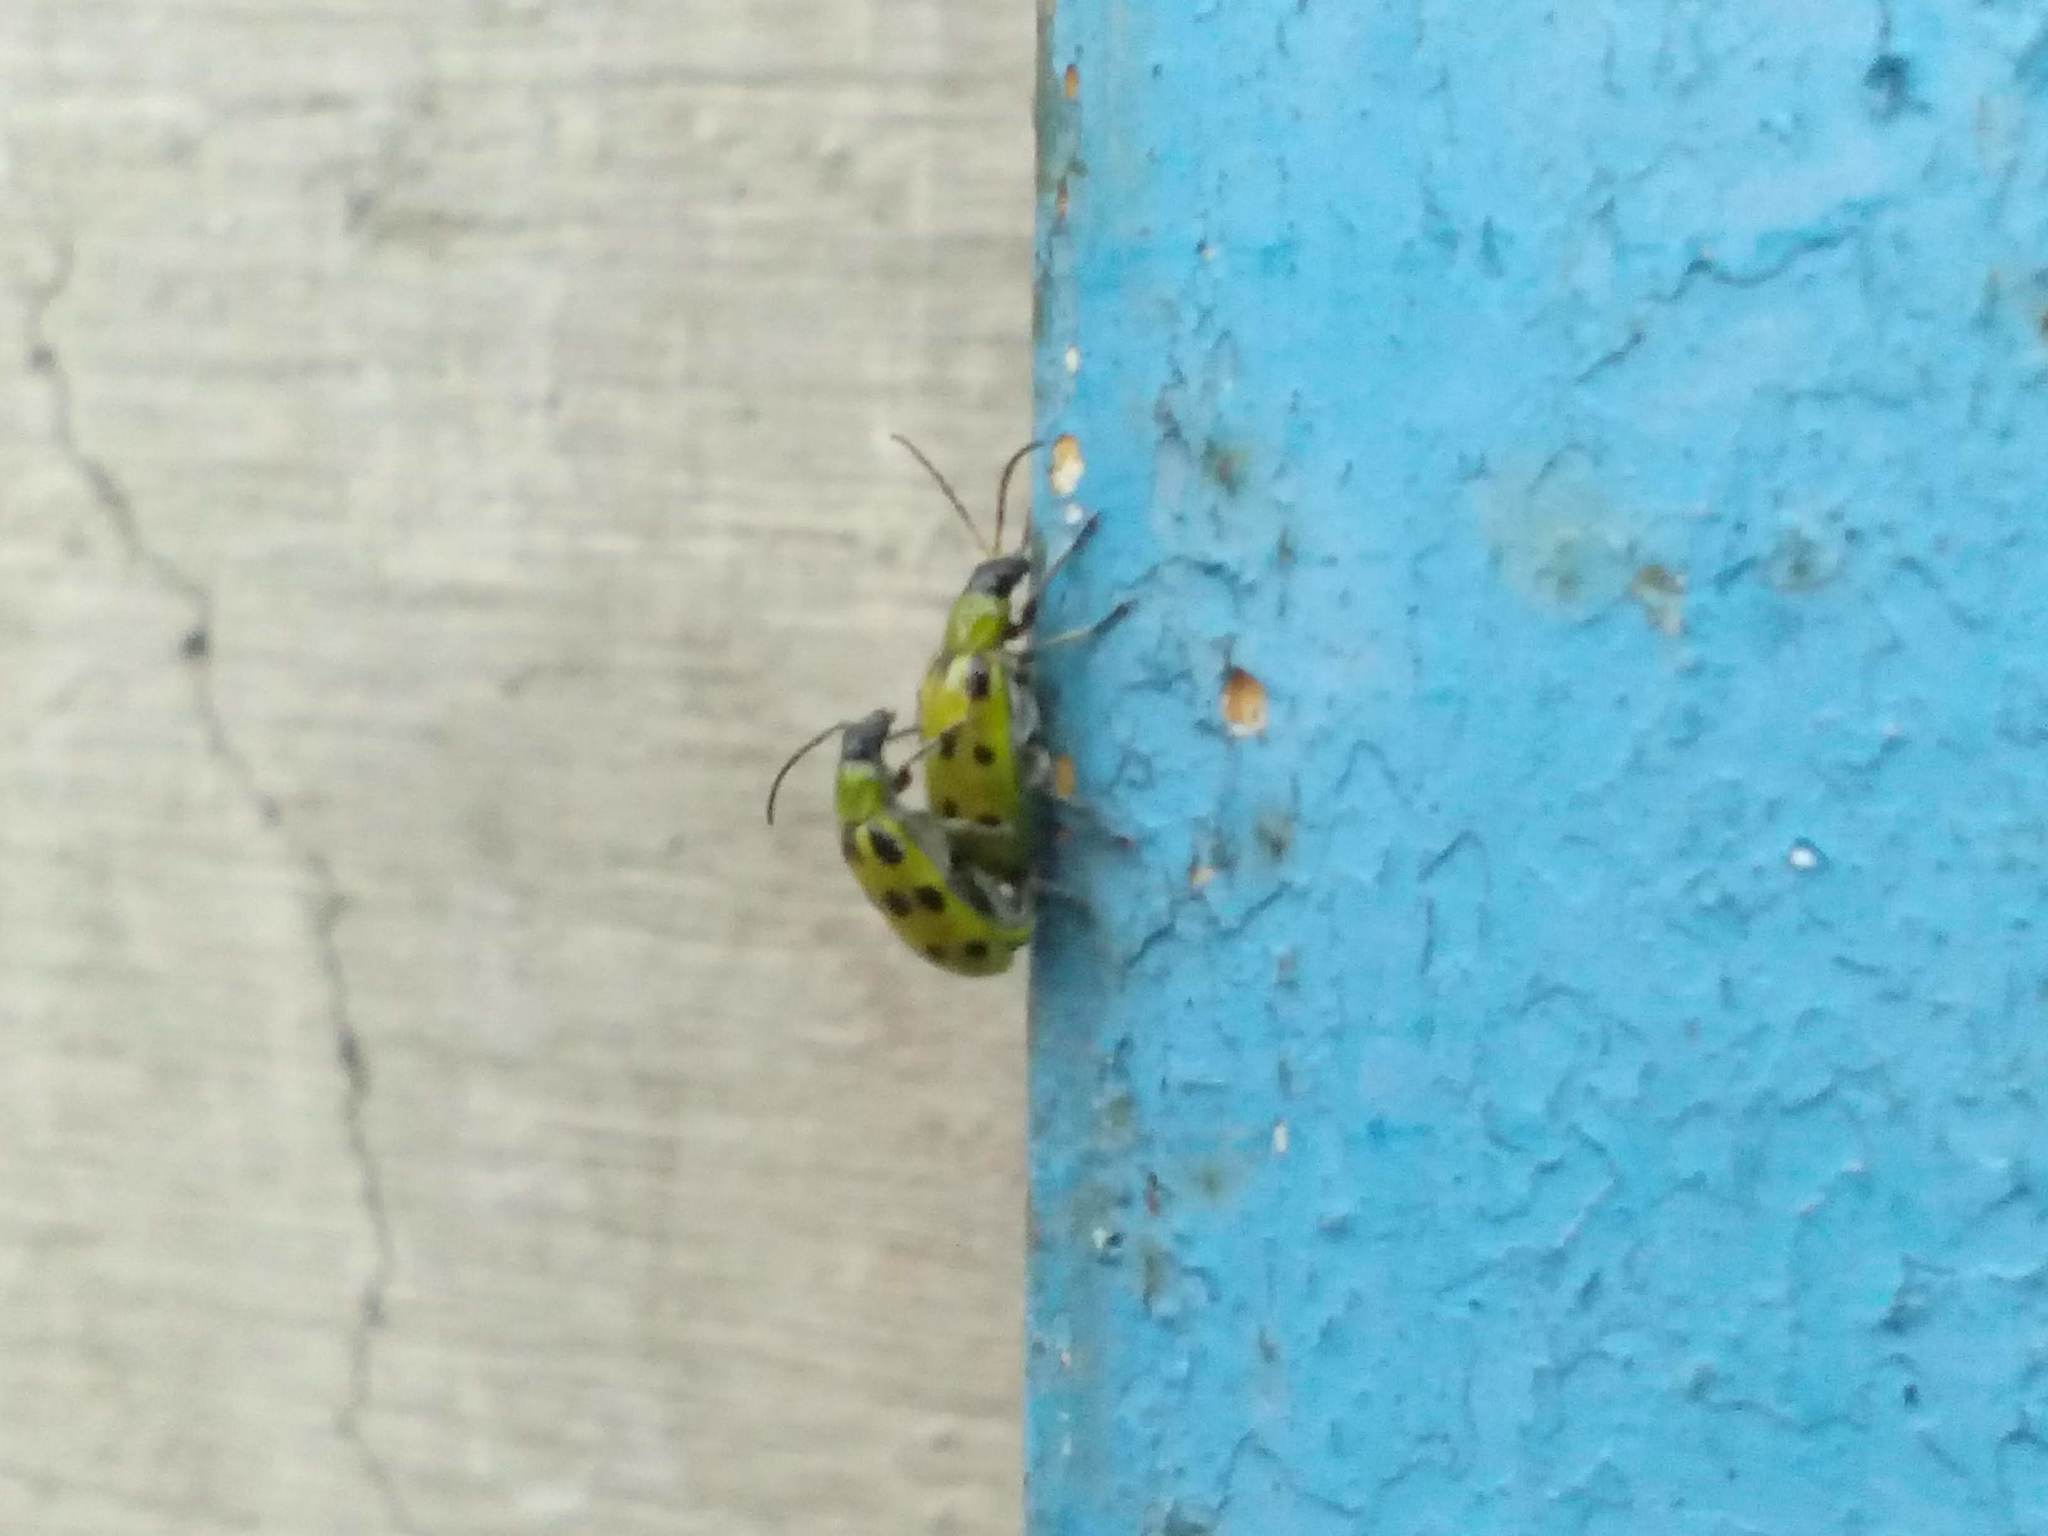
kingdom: Animalia
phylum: Arthropoda
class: Insecta
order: Coleoptera
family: Chrysomelidae
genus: Diabrotica
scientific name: Diabrotica undecimpunctata
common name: Spotted cucumber beetle
